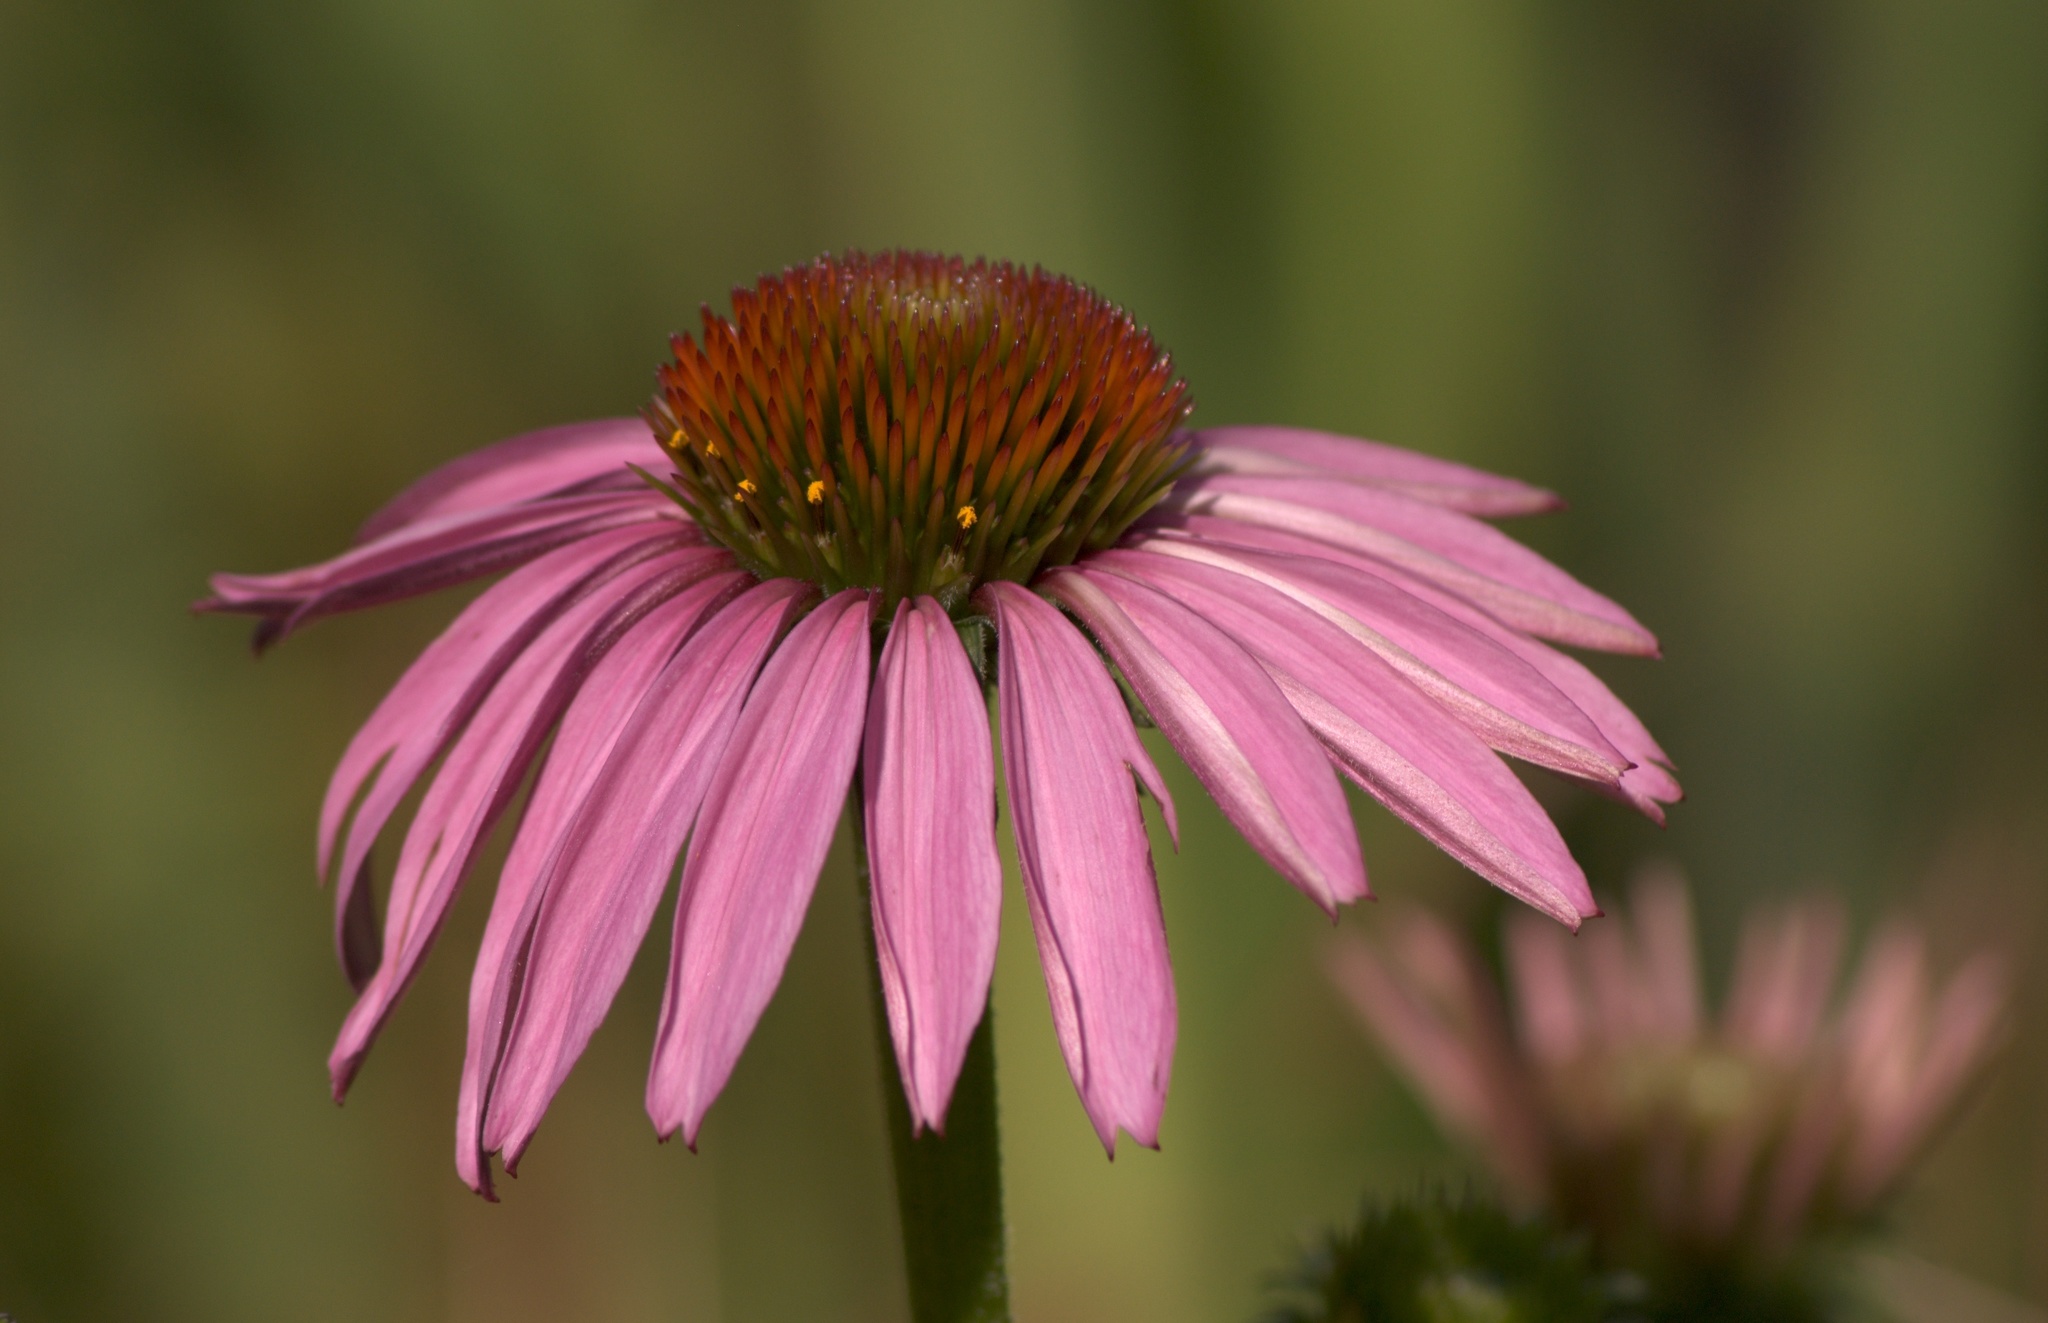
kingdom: Plantae
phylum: Tracheophyta
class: Magnoliopsida
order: Asterales
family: Asteraceae
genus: Echinacea
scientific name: Echinacea purpurea
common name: Broad-leaved purple coneflower
